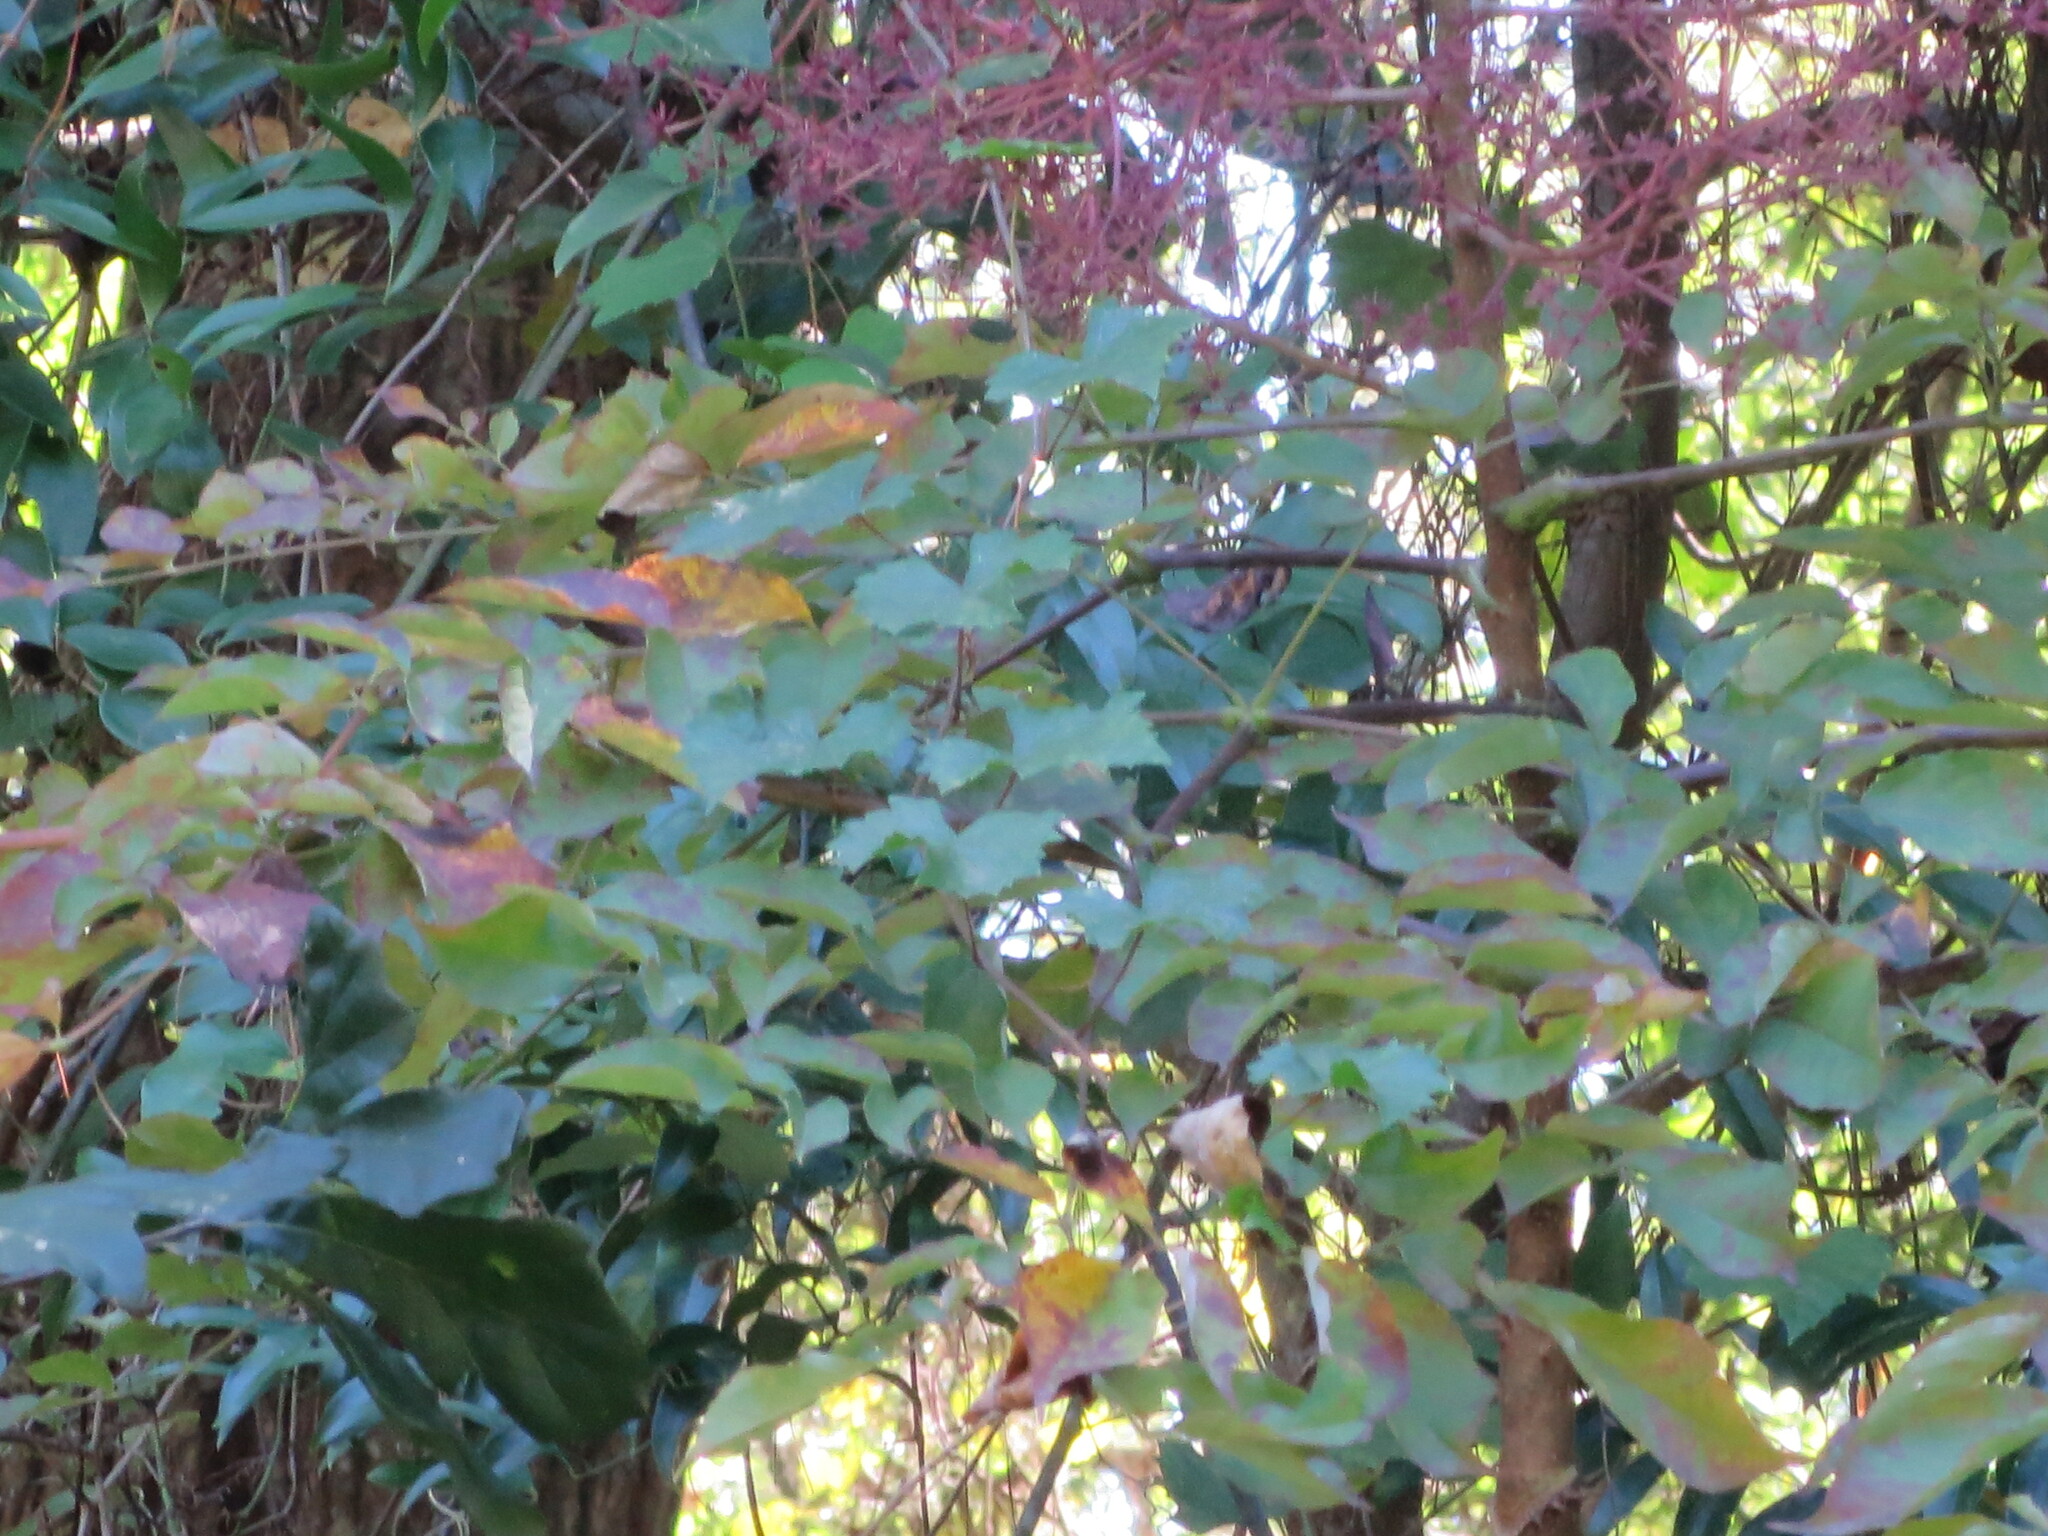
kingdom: Plantae
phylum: Tracheophyta
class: Magnoliopsida
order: Apiales
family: Araliaceae
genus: Aralia
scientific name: Aralia spinosa
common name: Hercules'-club
